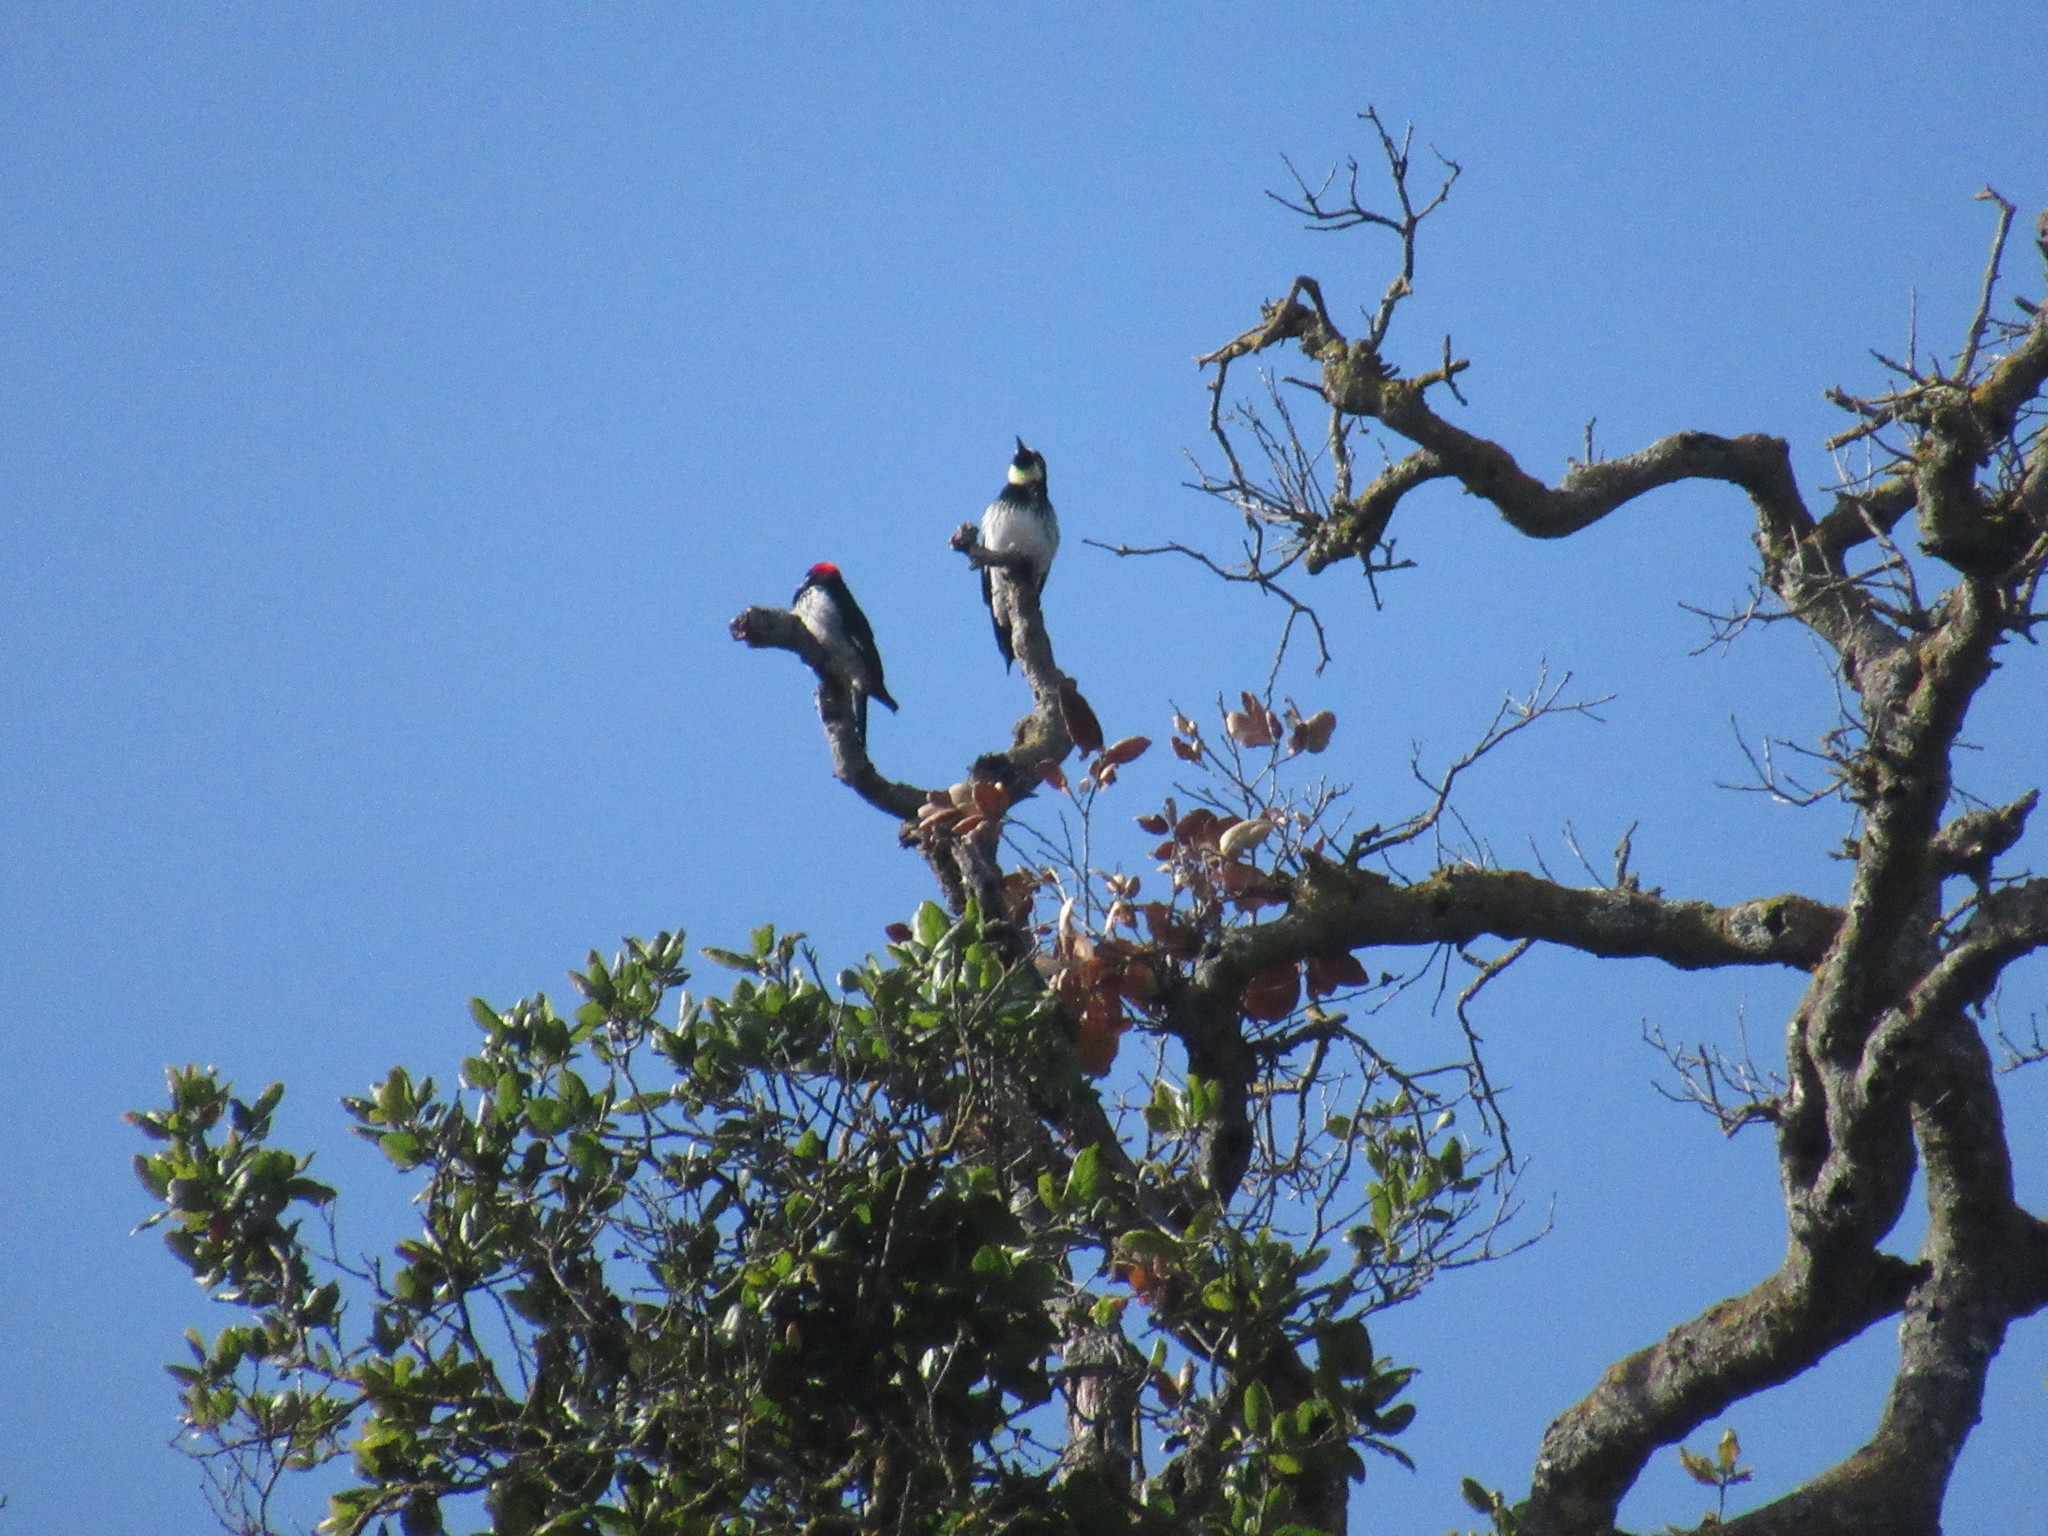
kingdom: Animalia
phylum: Chordata
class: Aves
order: Piciformes
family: Picidae
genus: Melanerpes
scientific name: Melanerpes formicivorus
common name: Acorn woodpecker
